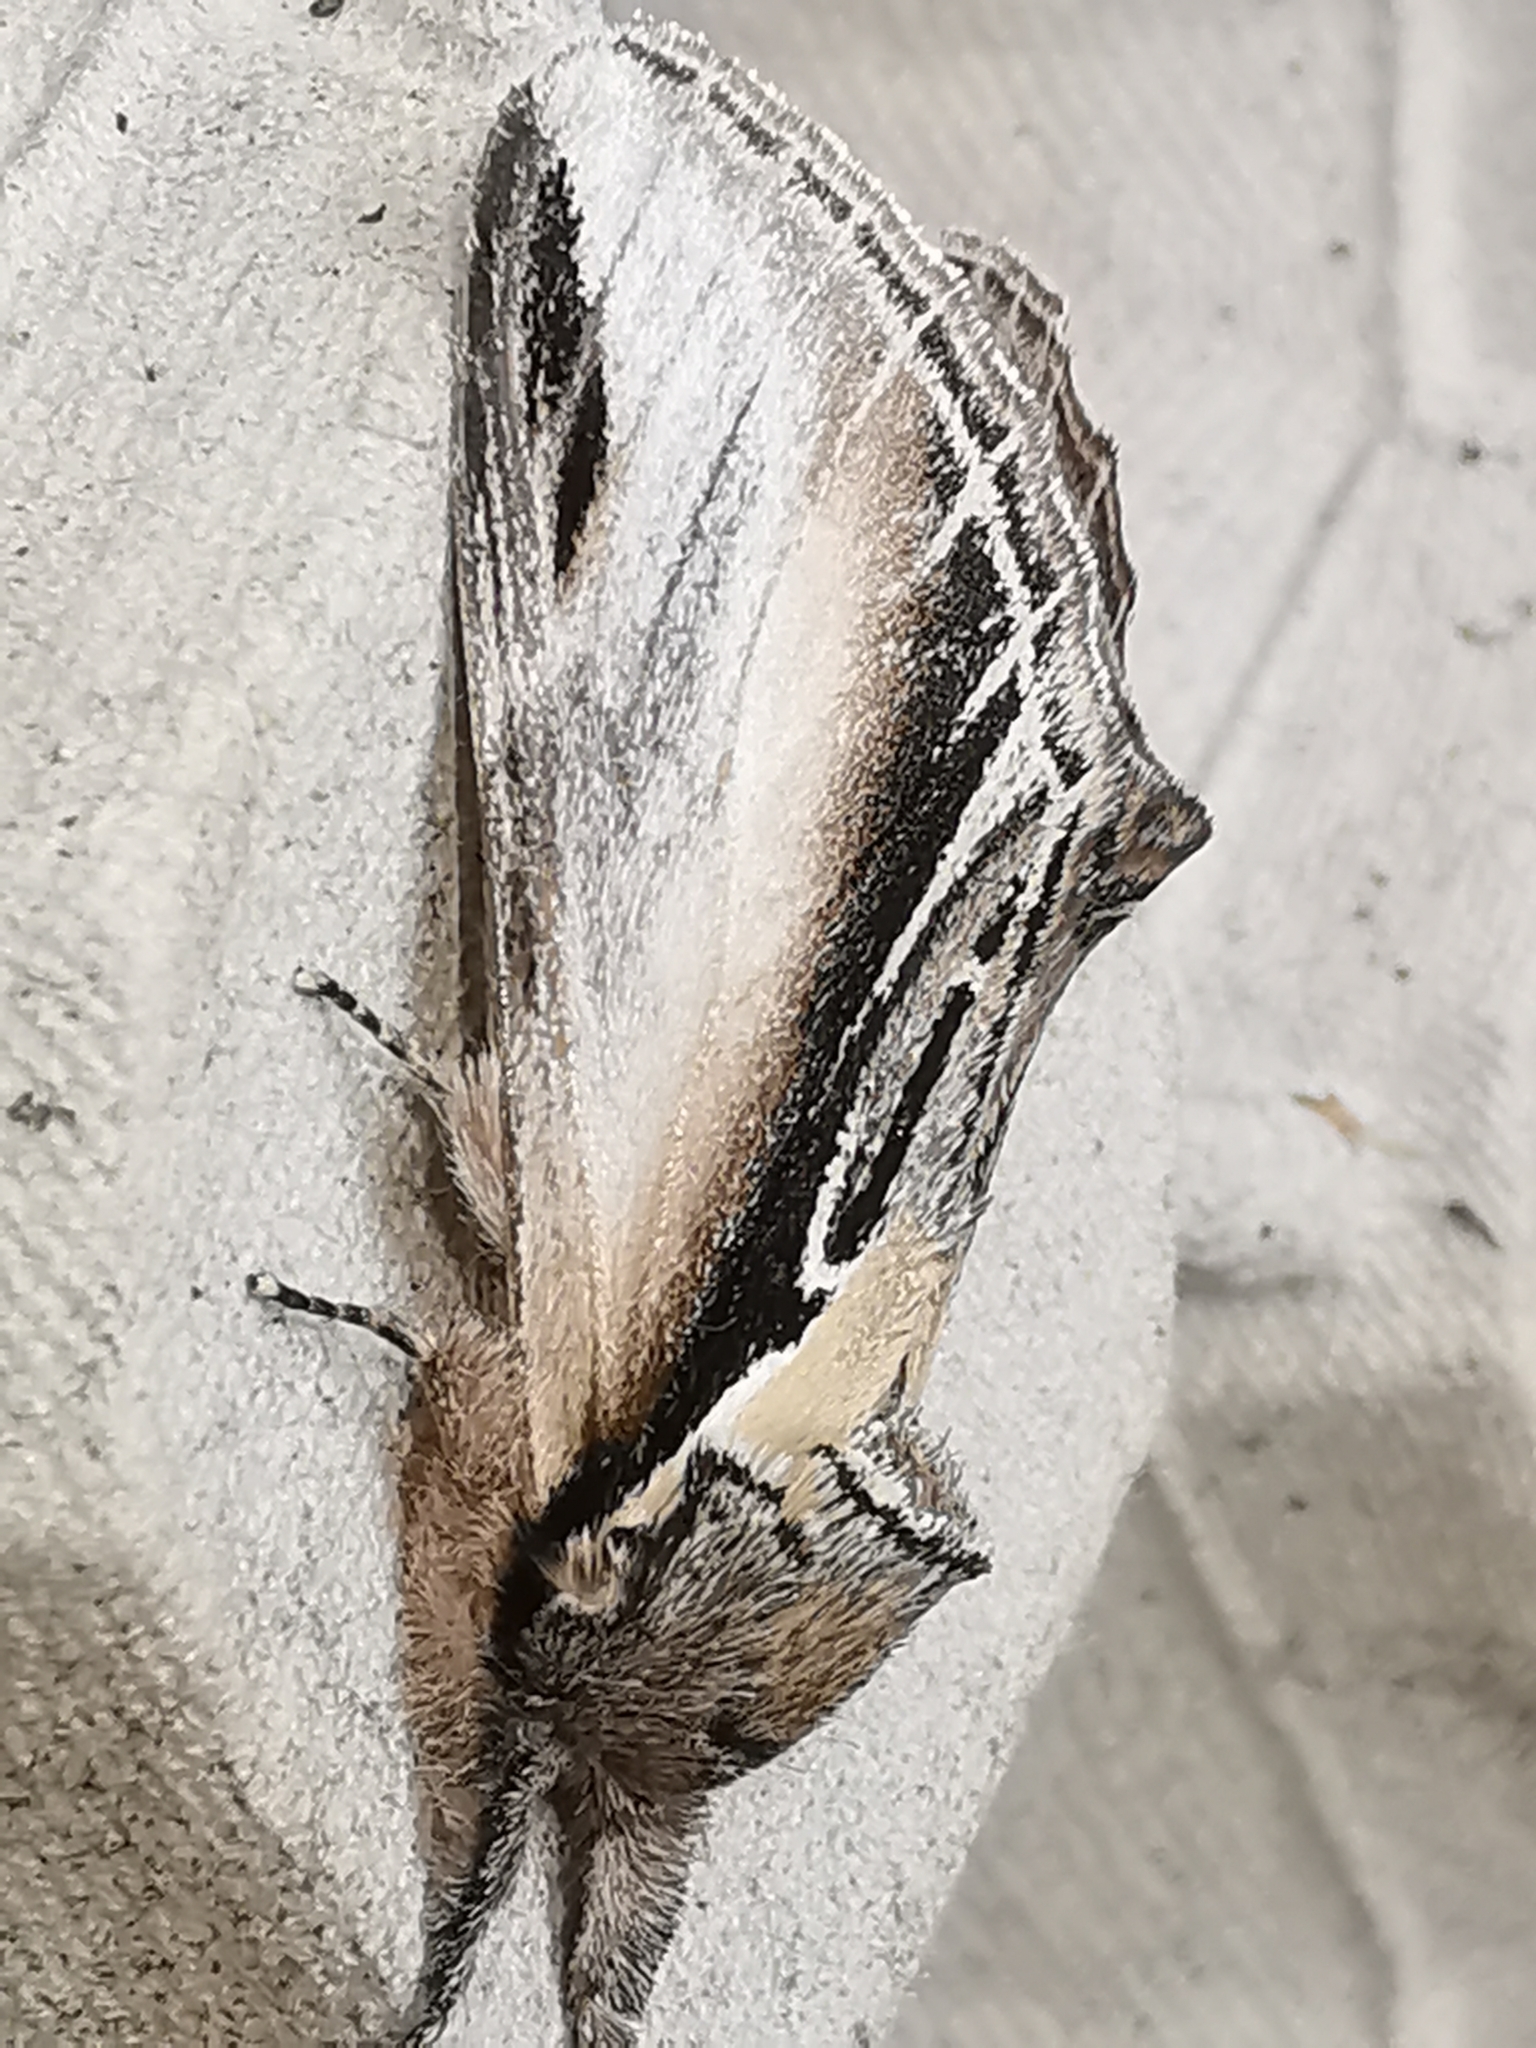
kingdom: Animalia
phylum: Arthropoda
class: Insecta
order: Lepidoptera
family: Notodontidae
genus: Pheosia
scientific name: Pheosia tremula
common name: Swallow prominent
